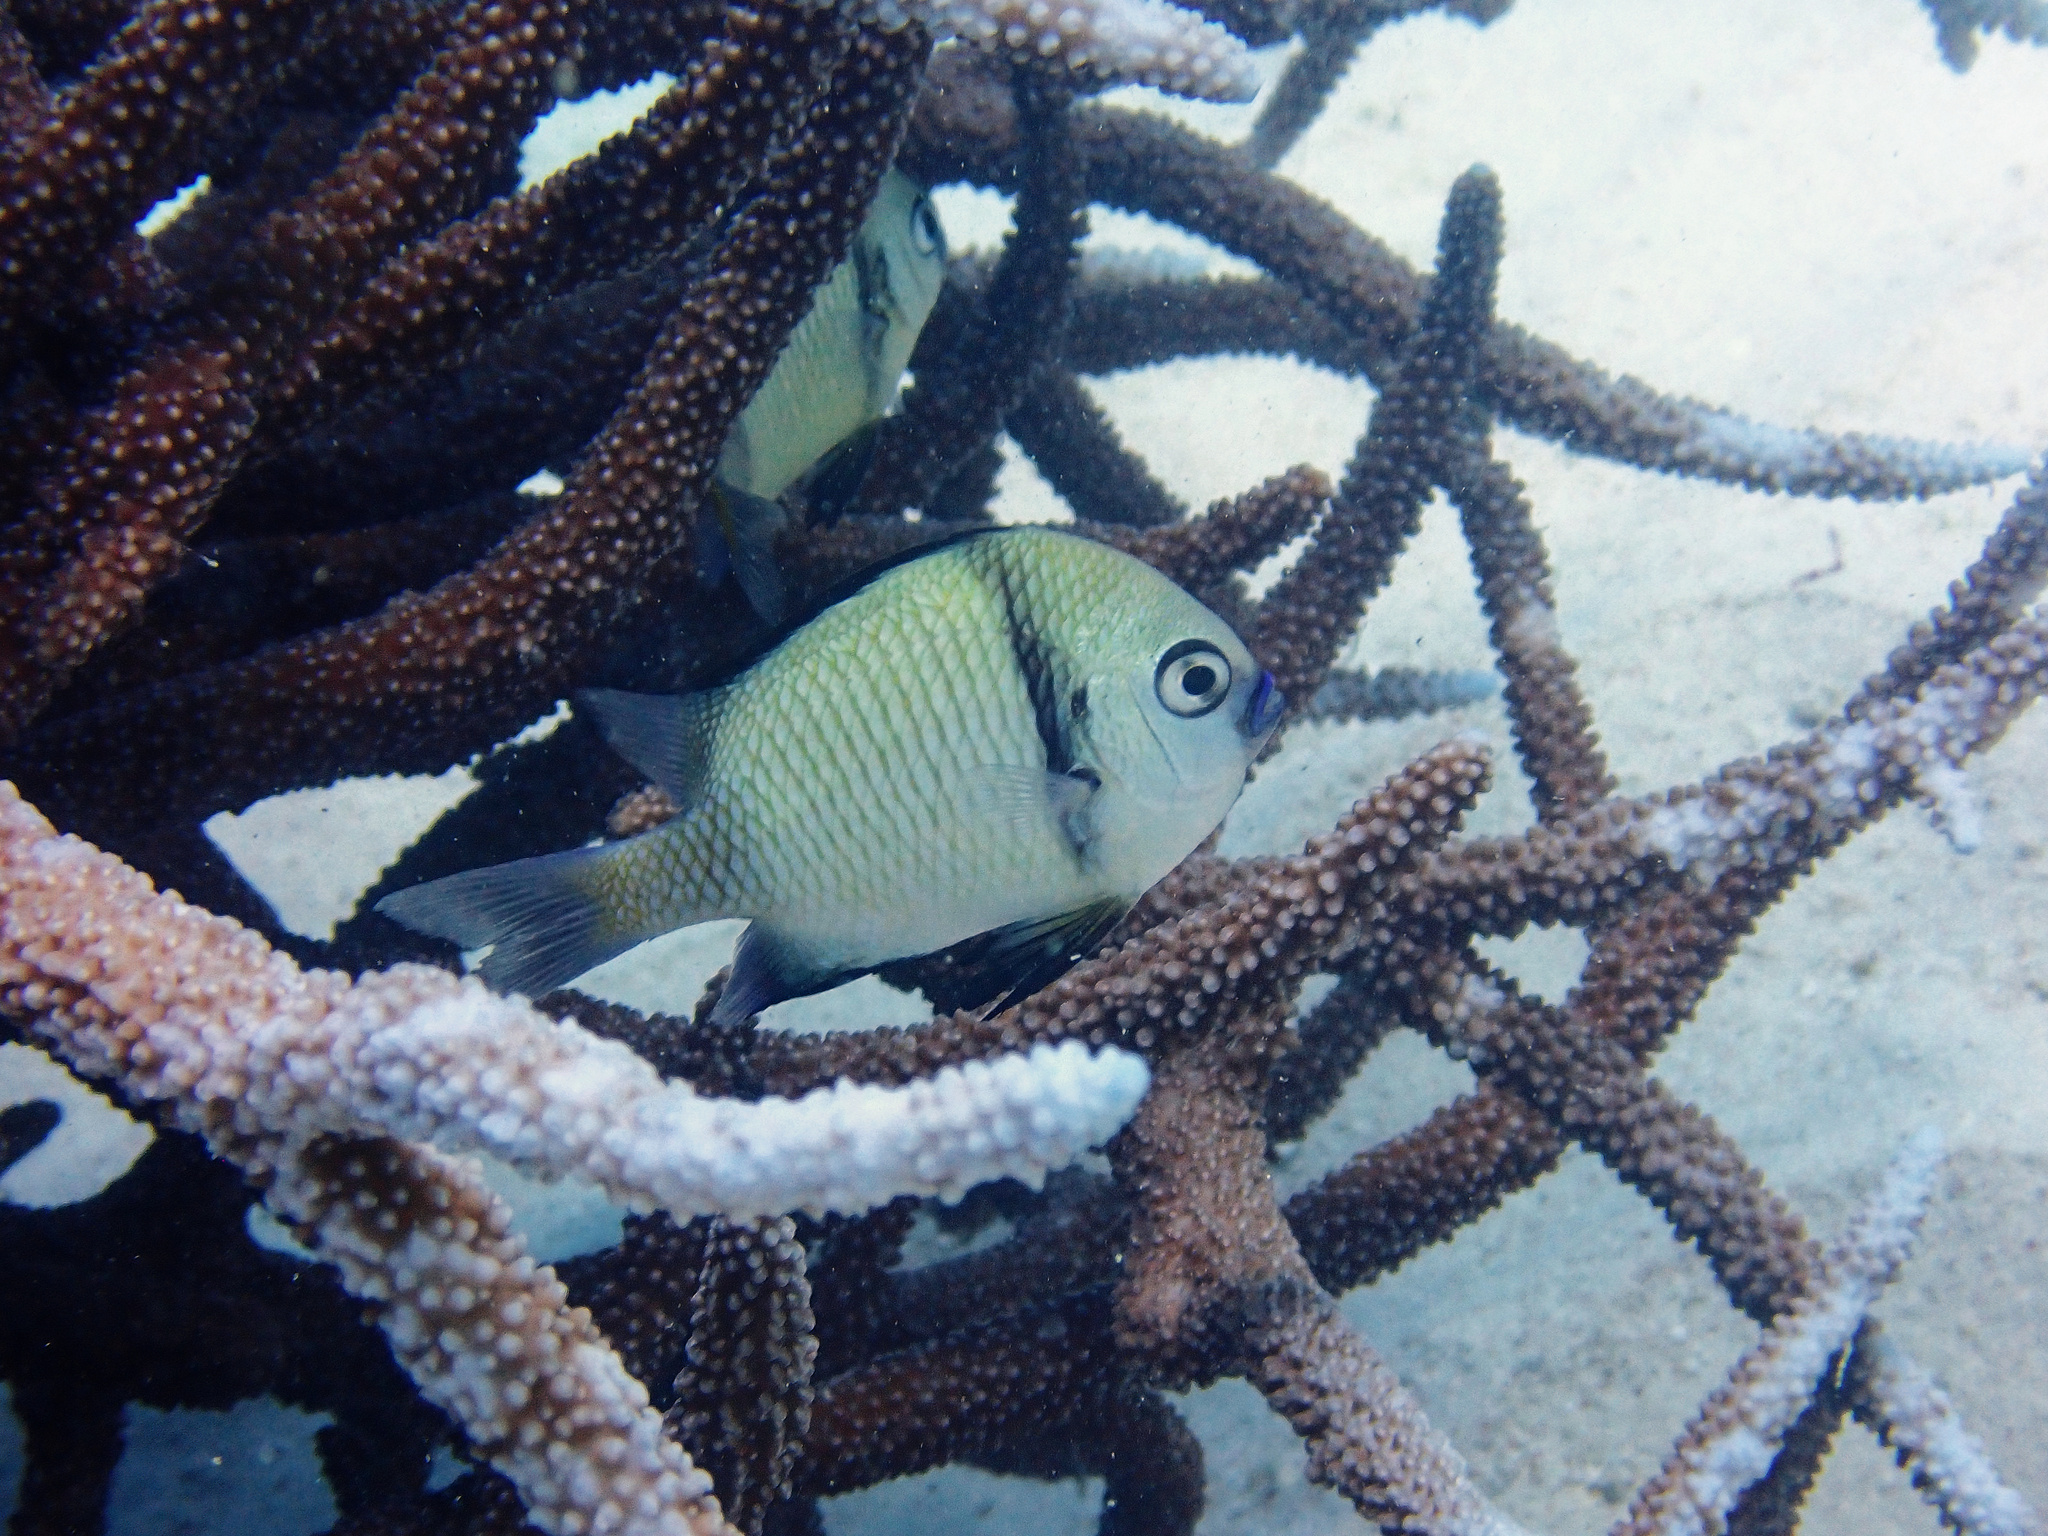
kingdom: Animalia
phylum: Chordata
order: Perciformes
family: Pomacentridae
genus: Dascyllus
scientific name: Dascyllus reticulatus
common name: Reticulated dascyllus
